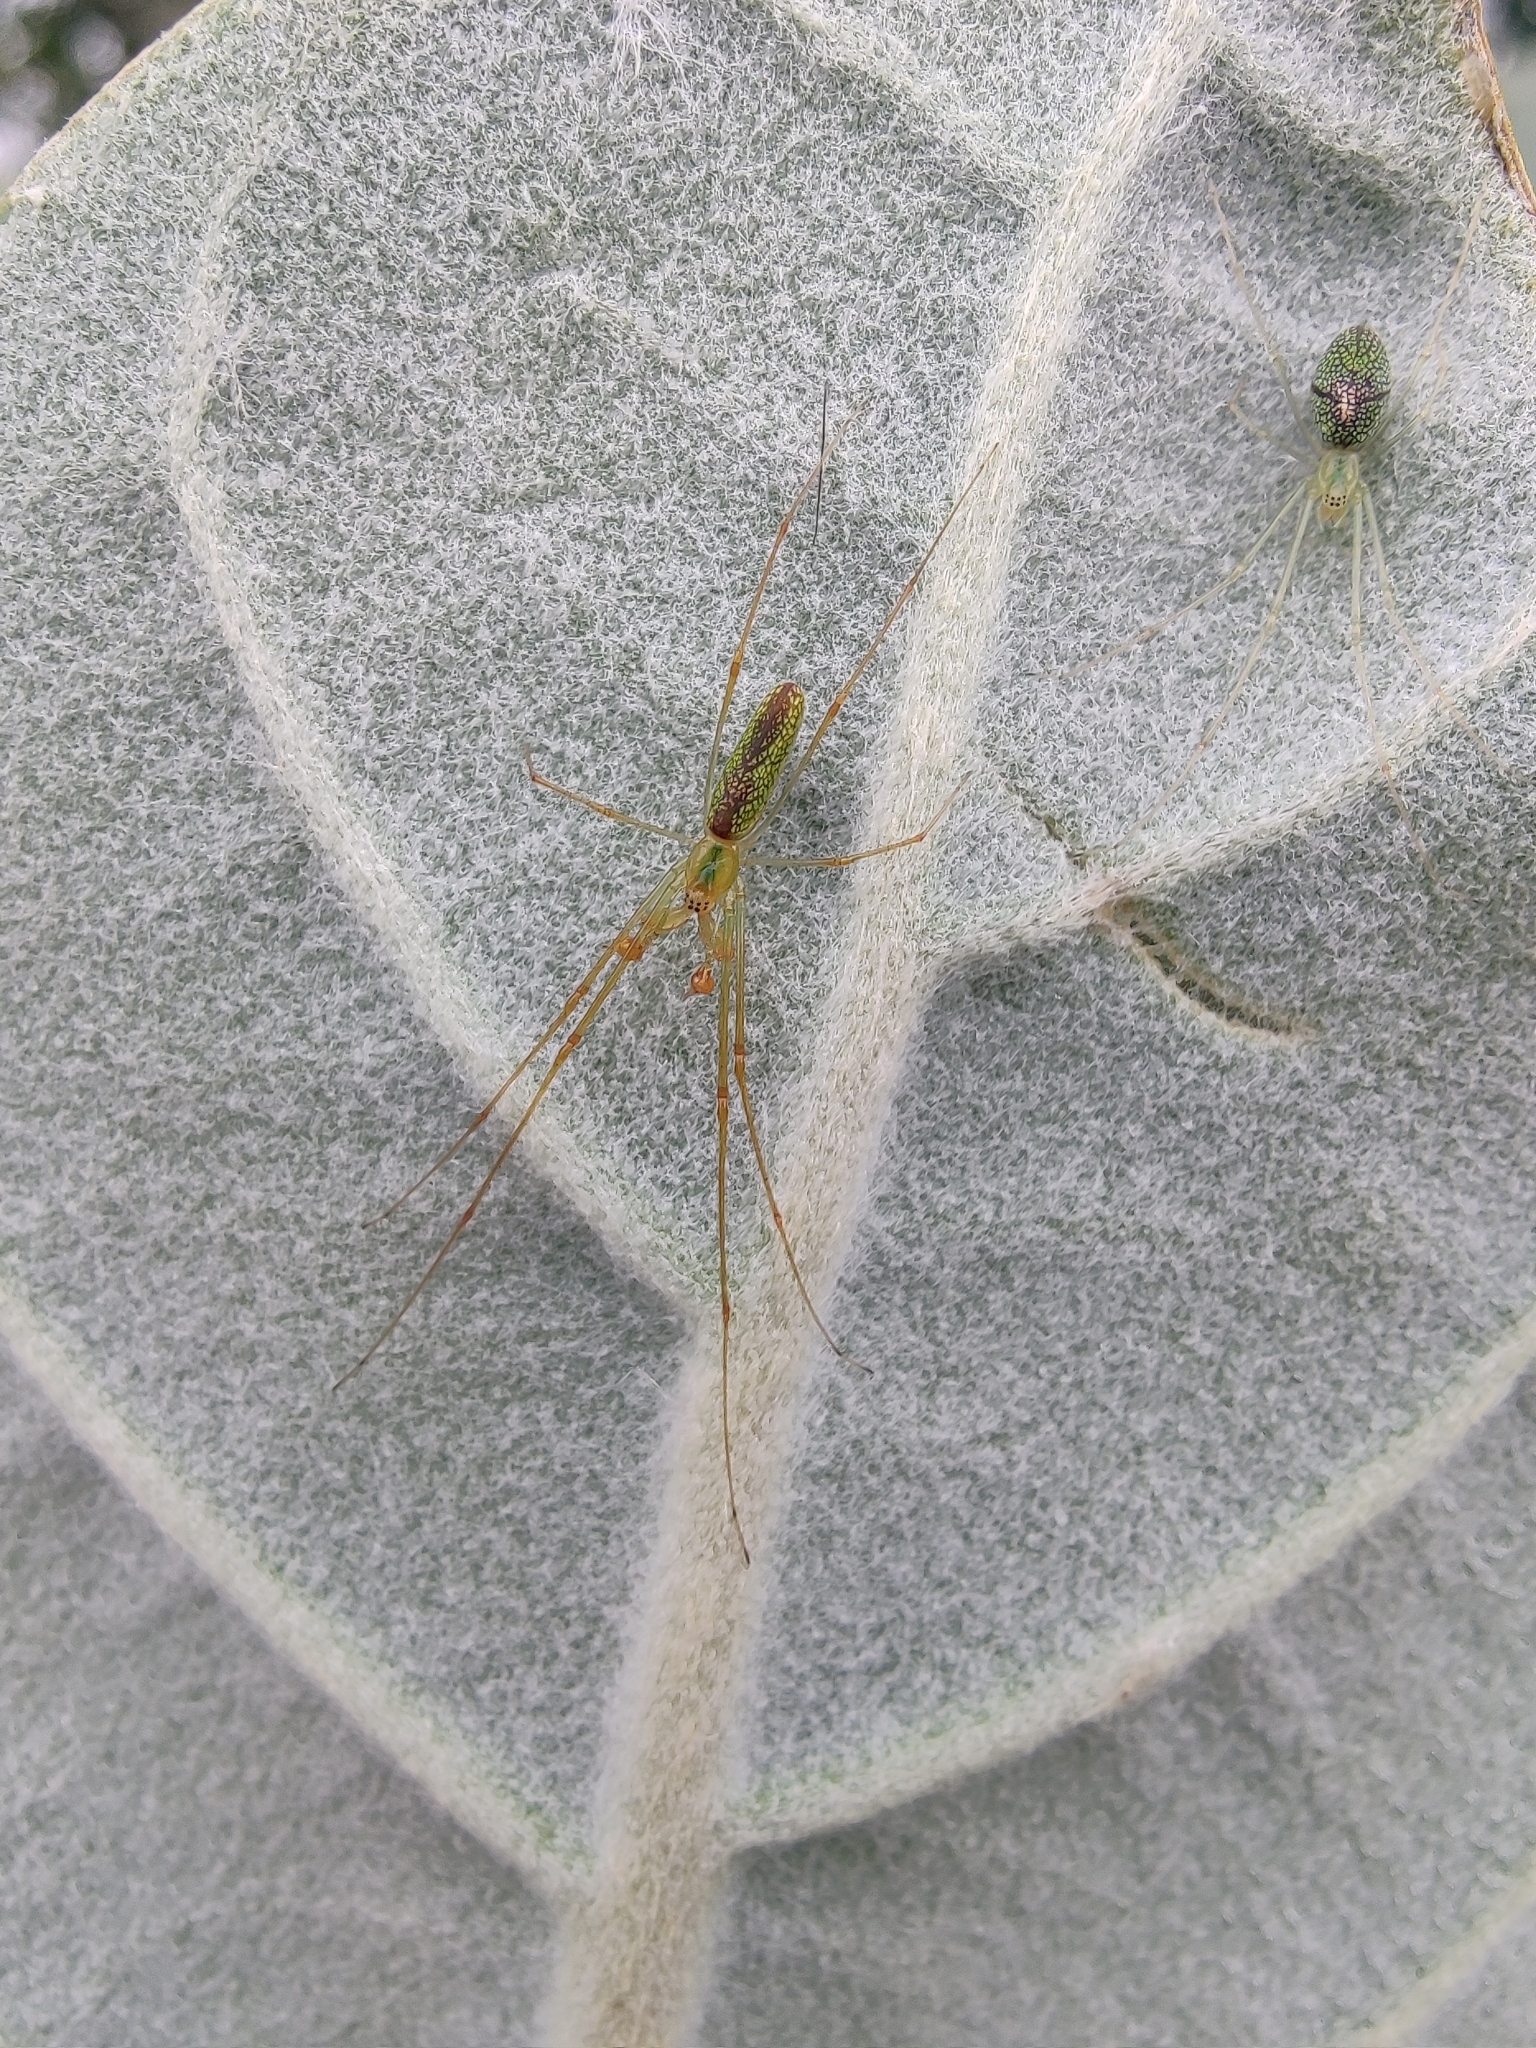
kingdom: Animalia
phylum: Arthropoda
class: Arachnida
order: Araneae
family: Tetragnathidae
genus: Tetragnatha
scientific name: Tetragnatha squamata
